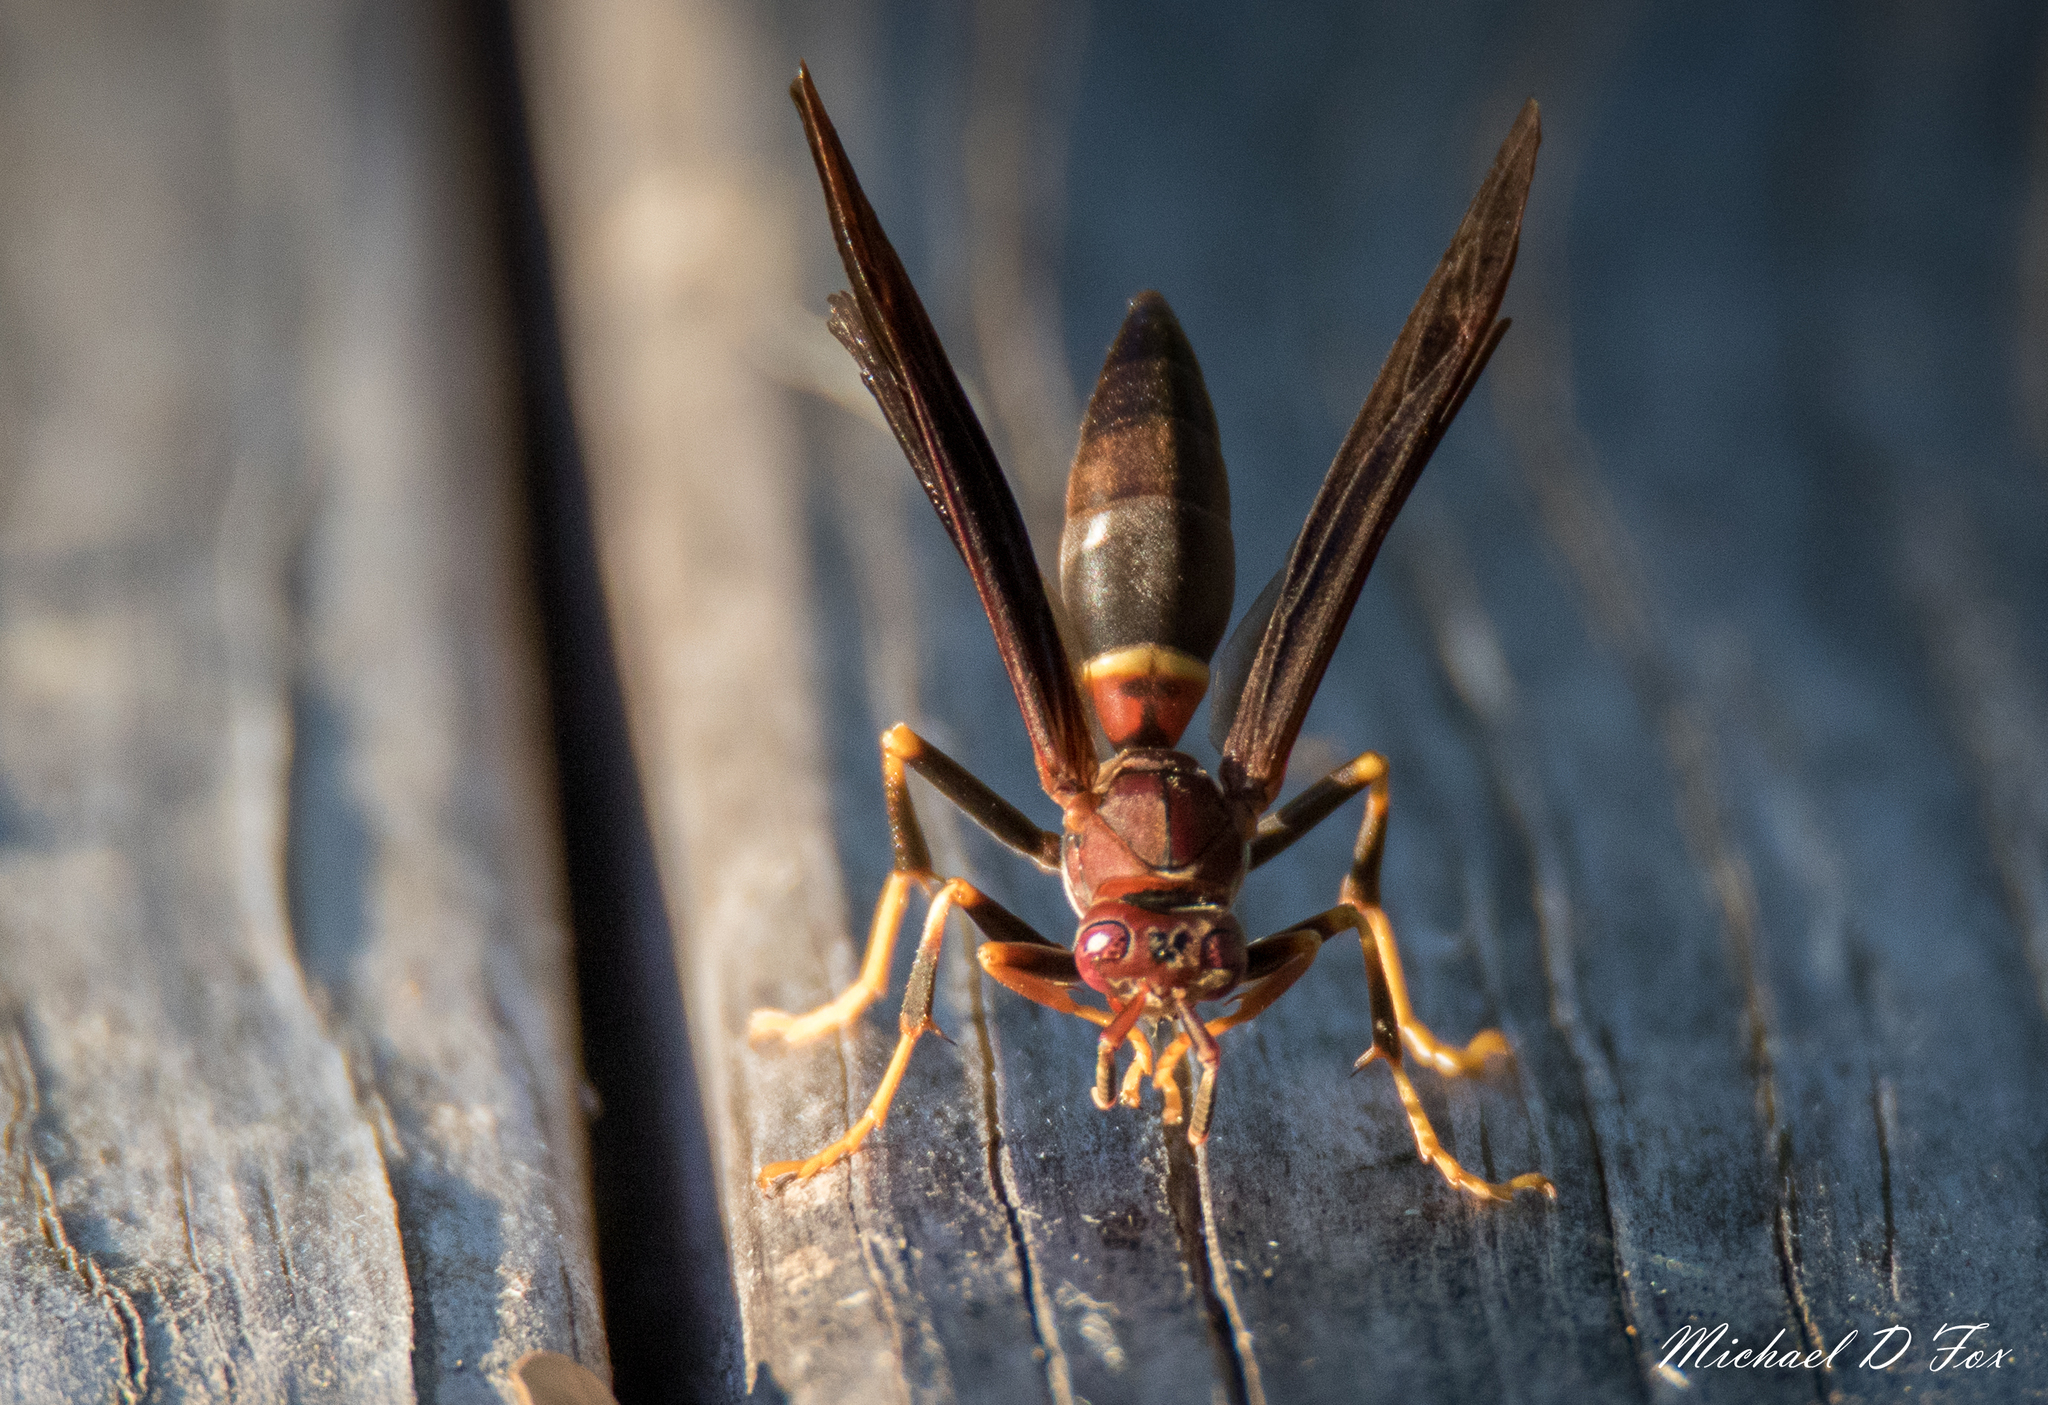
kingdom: Animalia
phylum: Arthropoda
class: Insecta
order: Hymenoptera
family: Eumenidae
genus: Polistes
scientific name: Polistes annularis
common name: Ringed paper wasp
